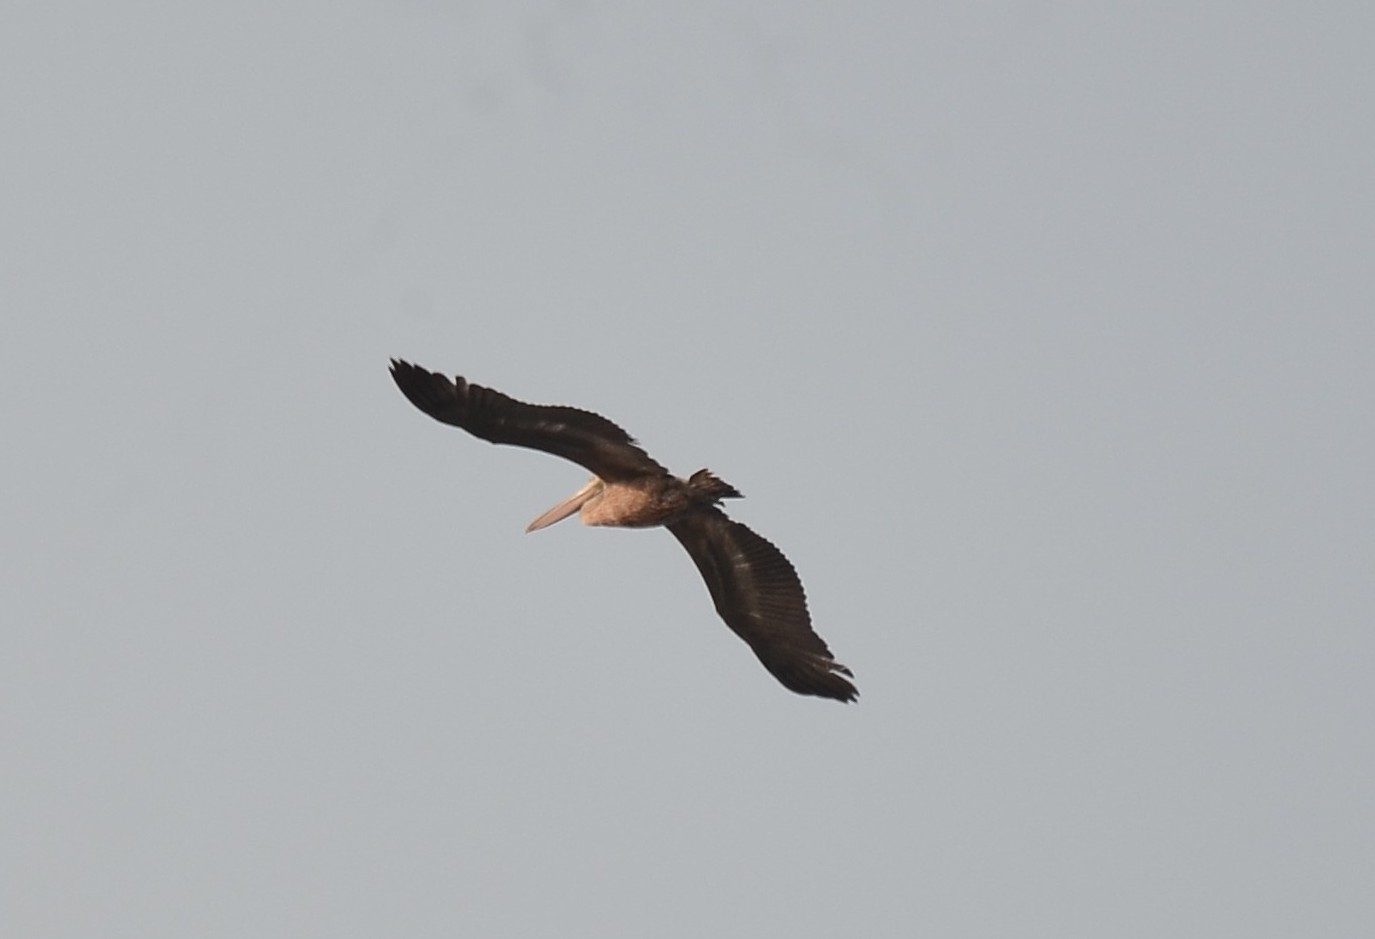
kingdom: Animalia
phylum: Chordata
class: Aves
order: Pelecaniformes
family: Pelecanidae
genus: Pelecanus
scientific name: Pelecanus philippensis
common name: Spot-billed pelican
